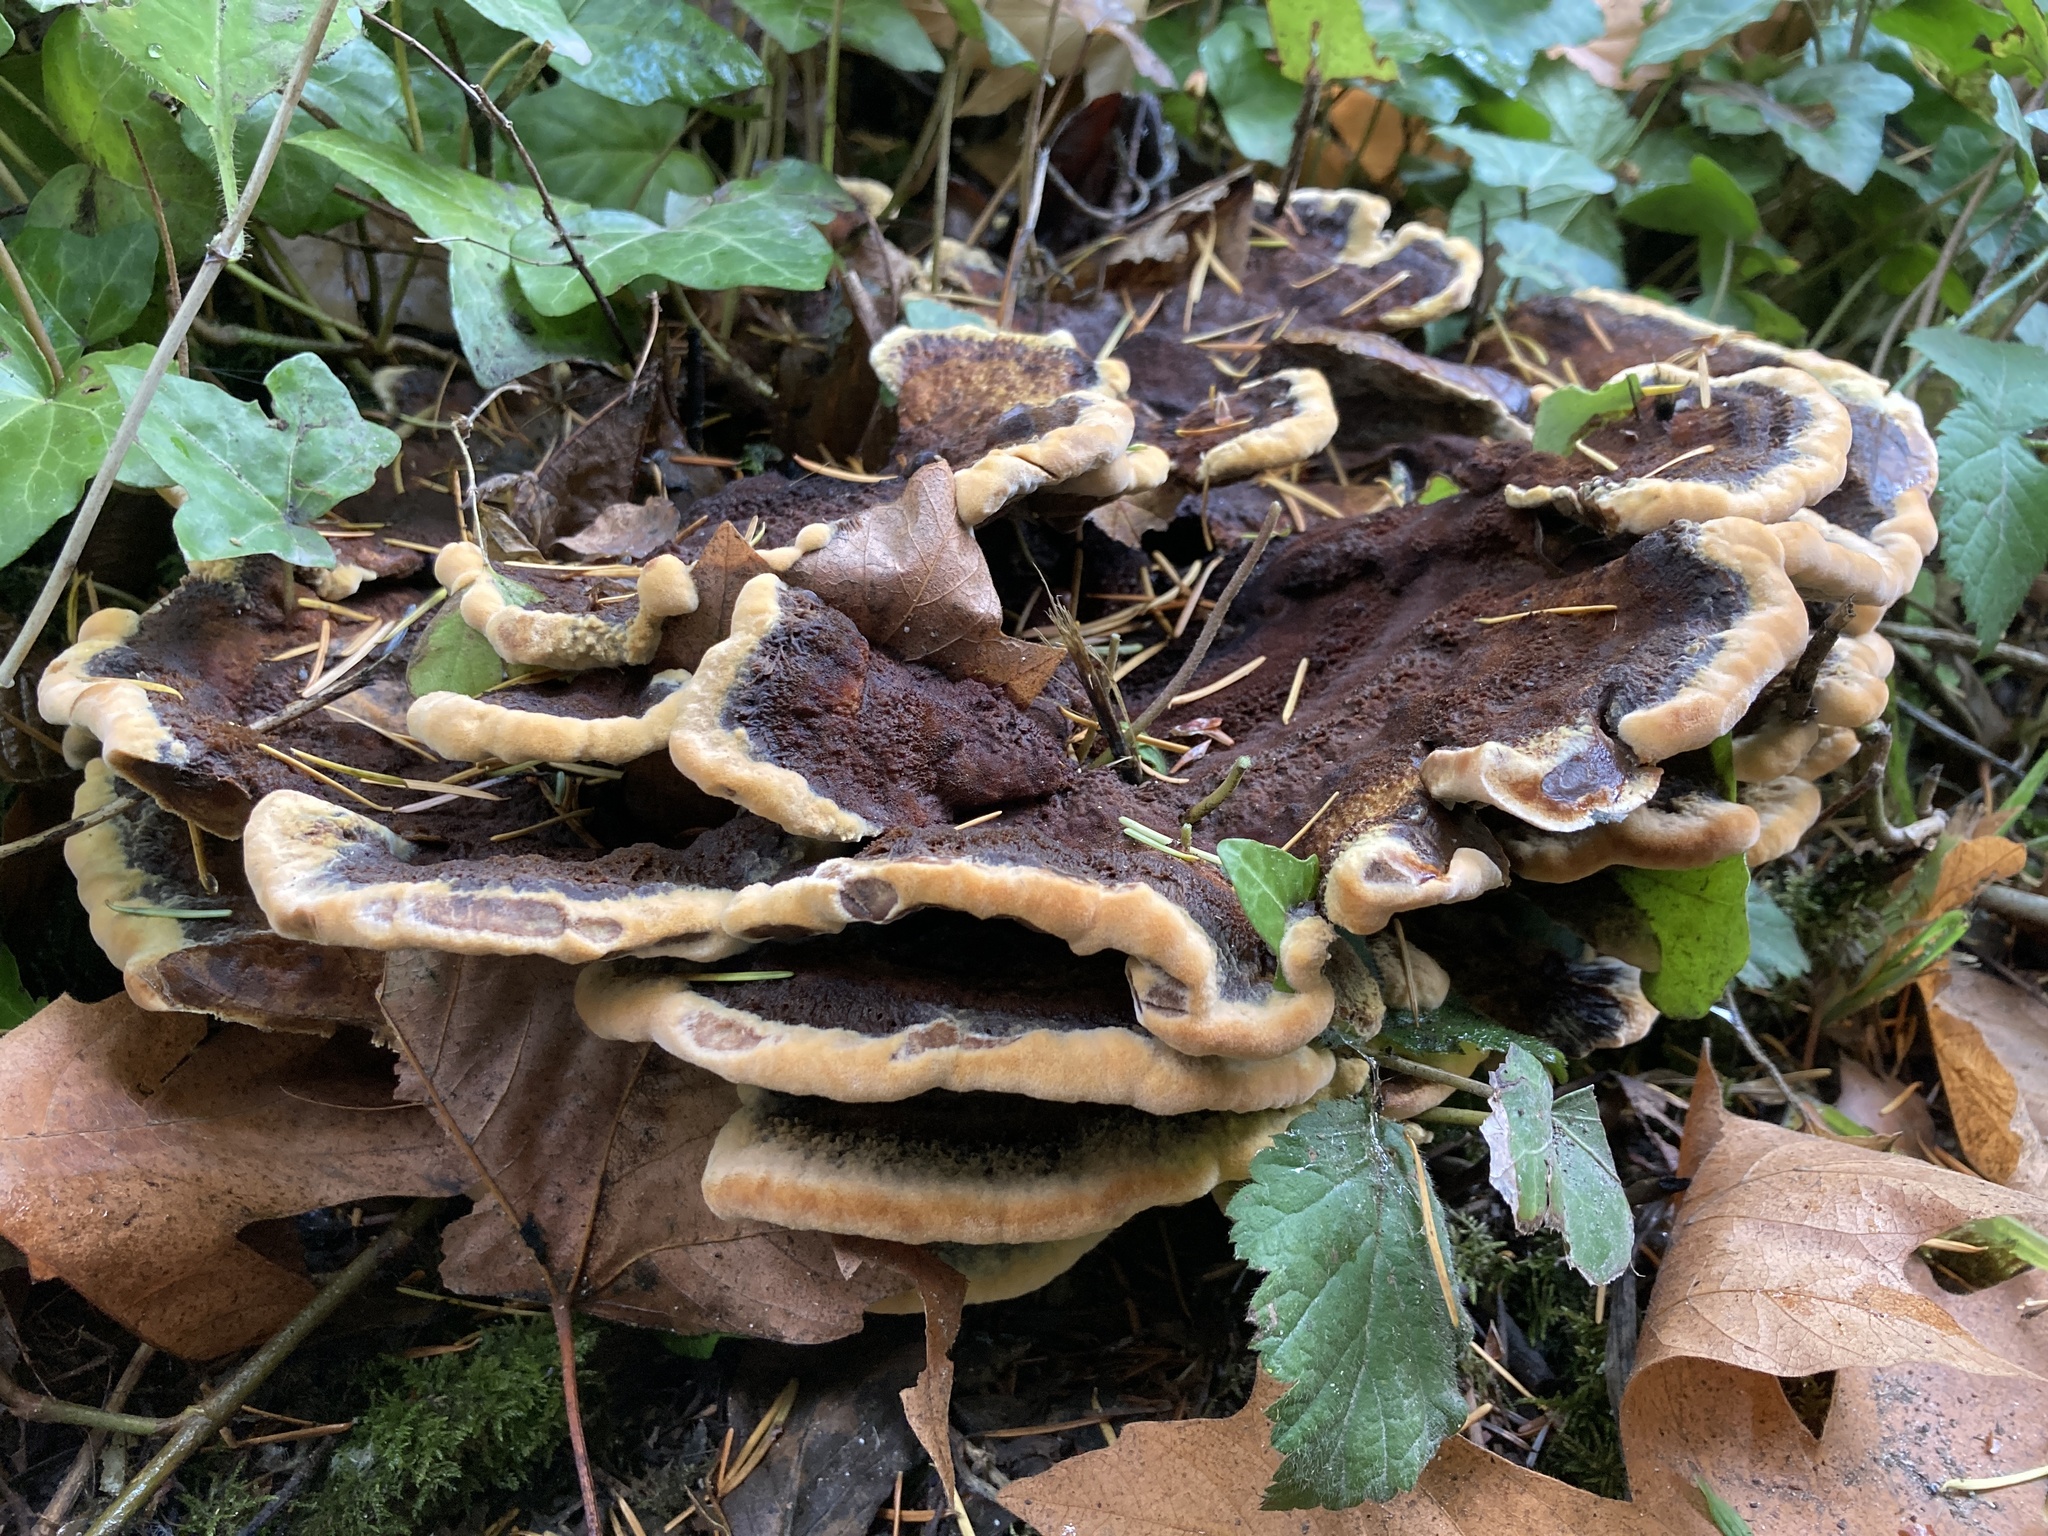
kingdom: Fungi
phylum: Basidiomycota
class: Agaricomycetes
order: Polyporales
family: Laetiporaceae
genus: Phaeolus
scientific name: Phaeolus schweinitzii
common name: Dyer's mazegill
